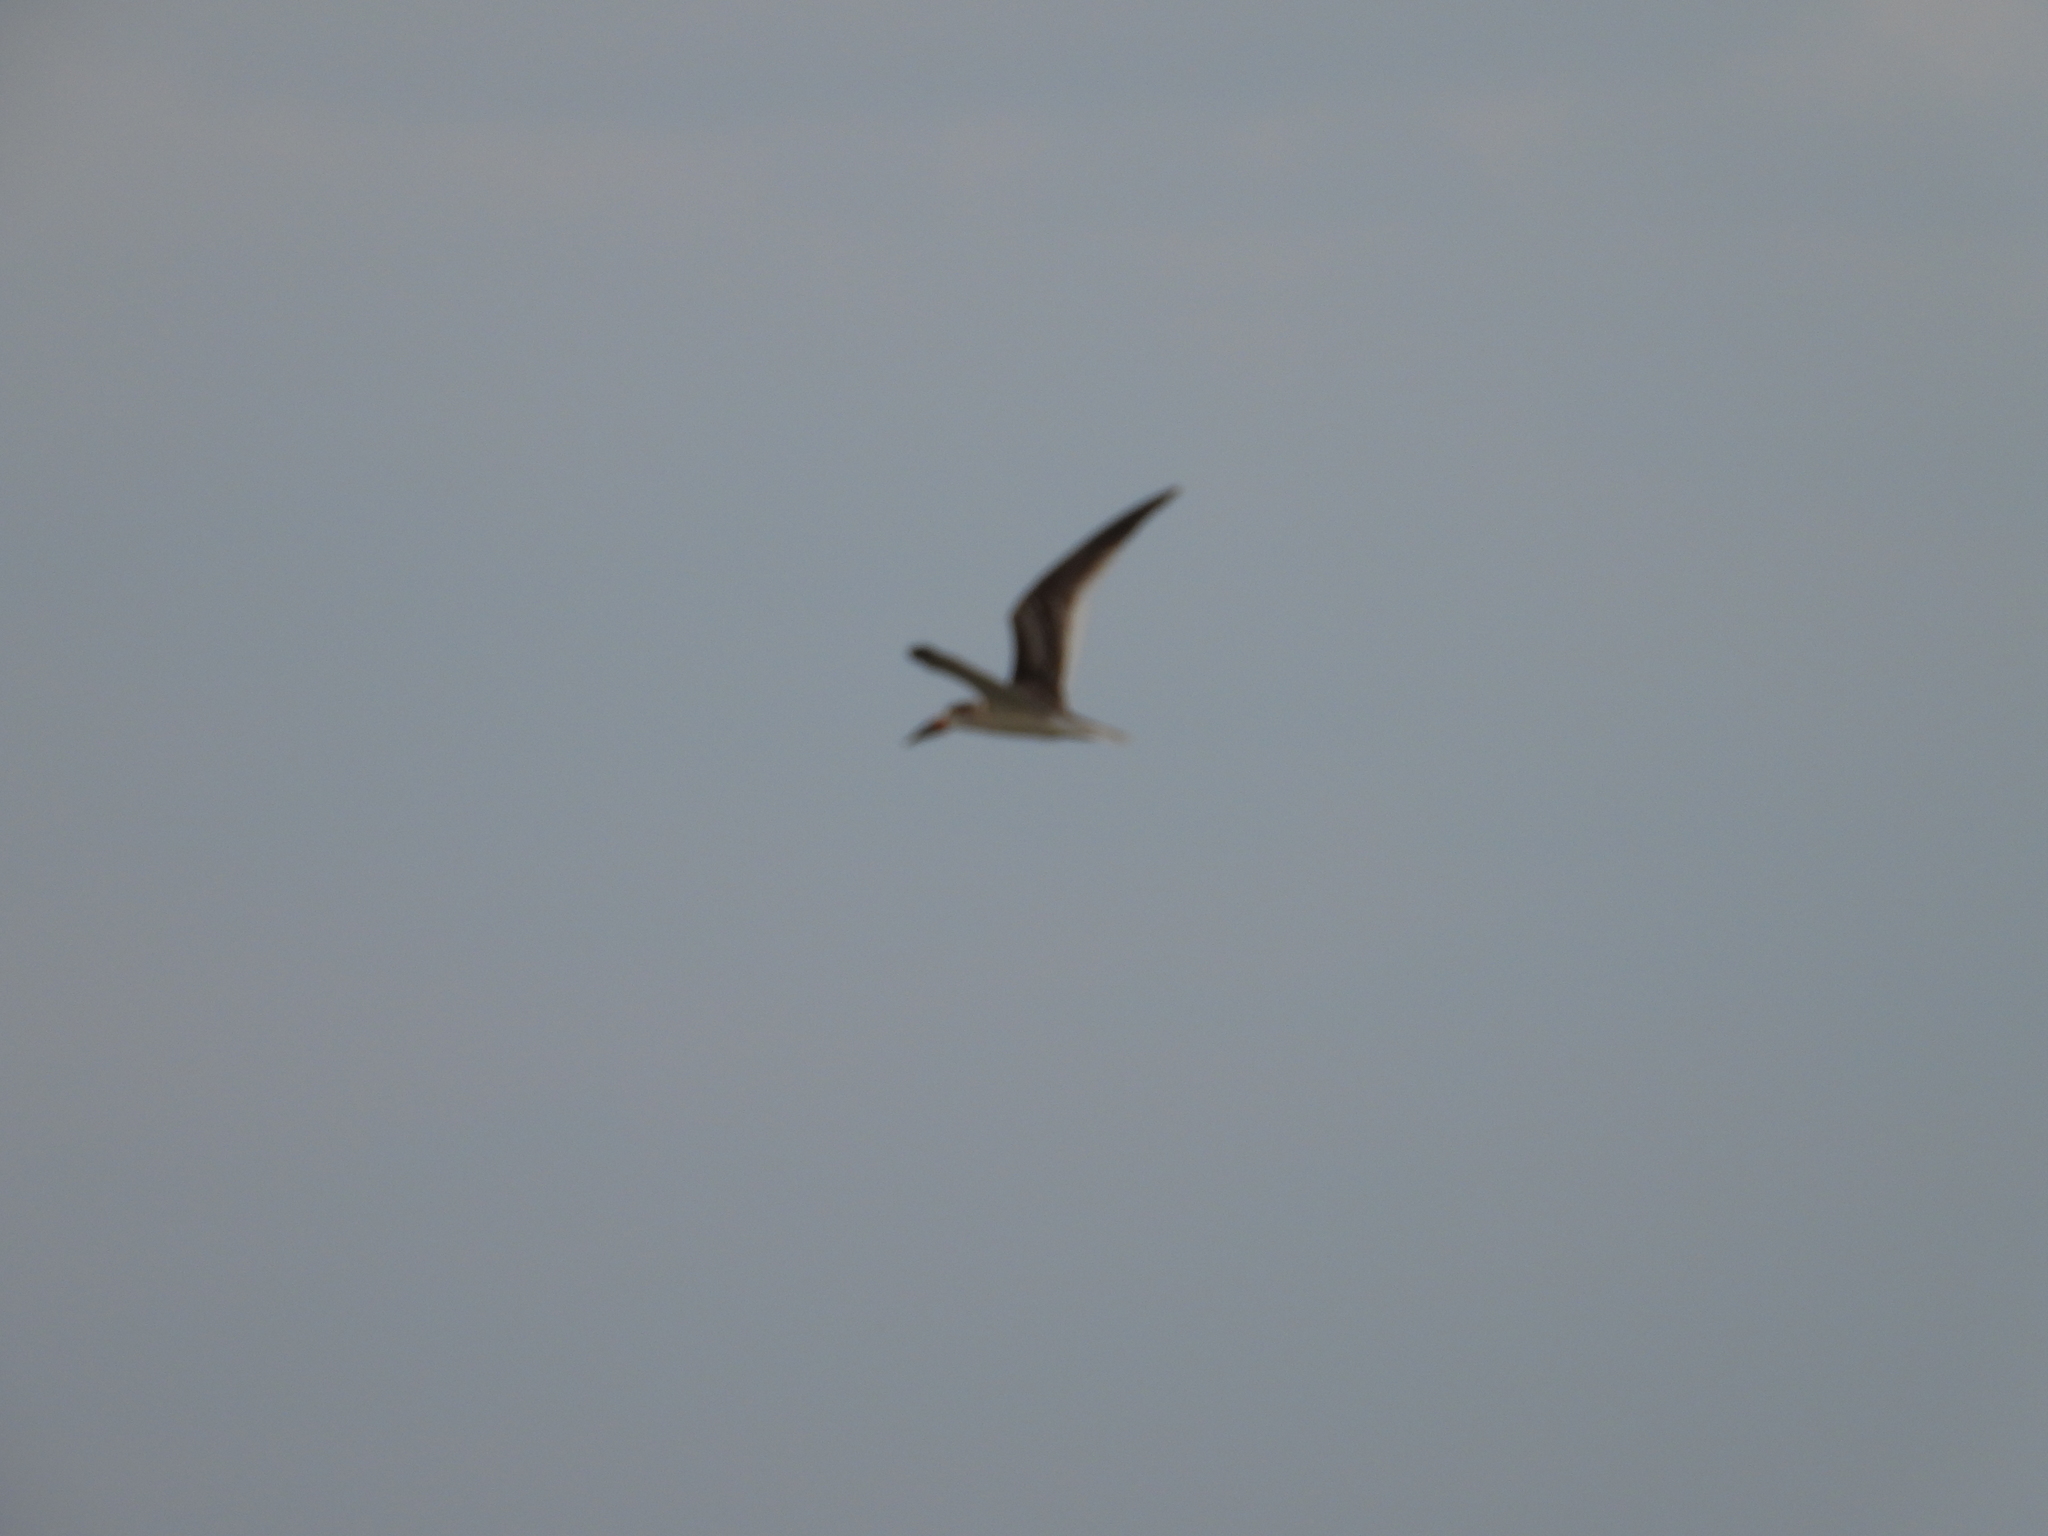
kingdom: Animalia
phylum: Chordata
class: Aves
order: Charadriiformes
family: Laridae
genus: Rynchops
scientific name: Rynchops niger
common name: Black skimmer
